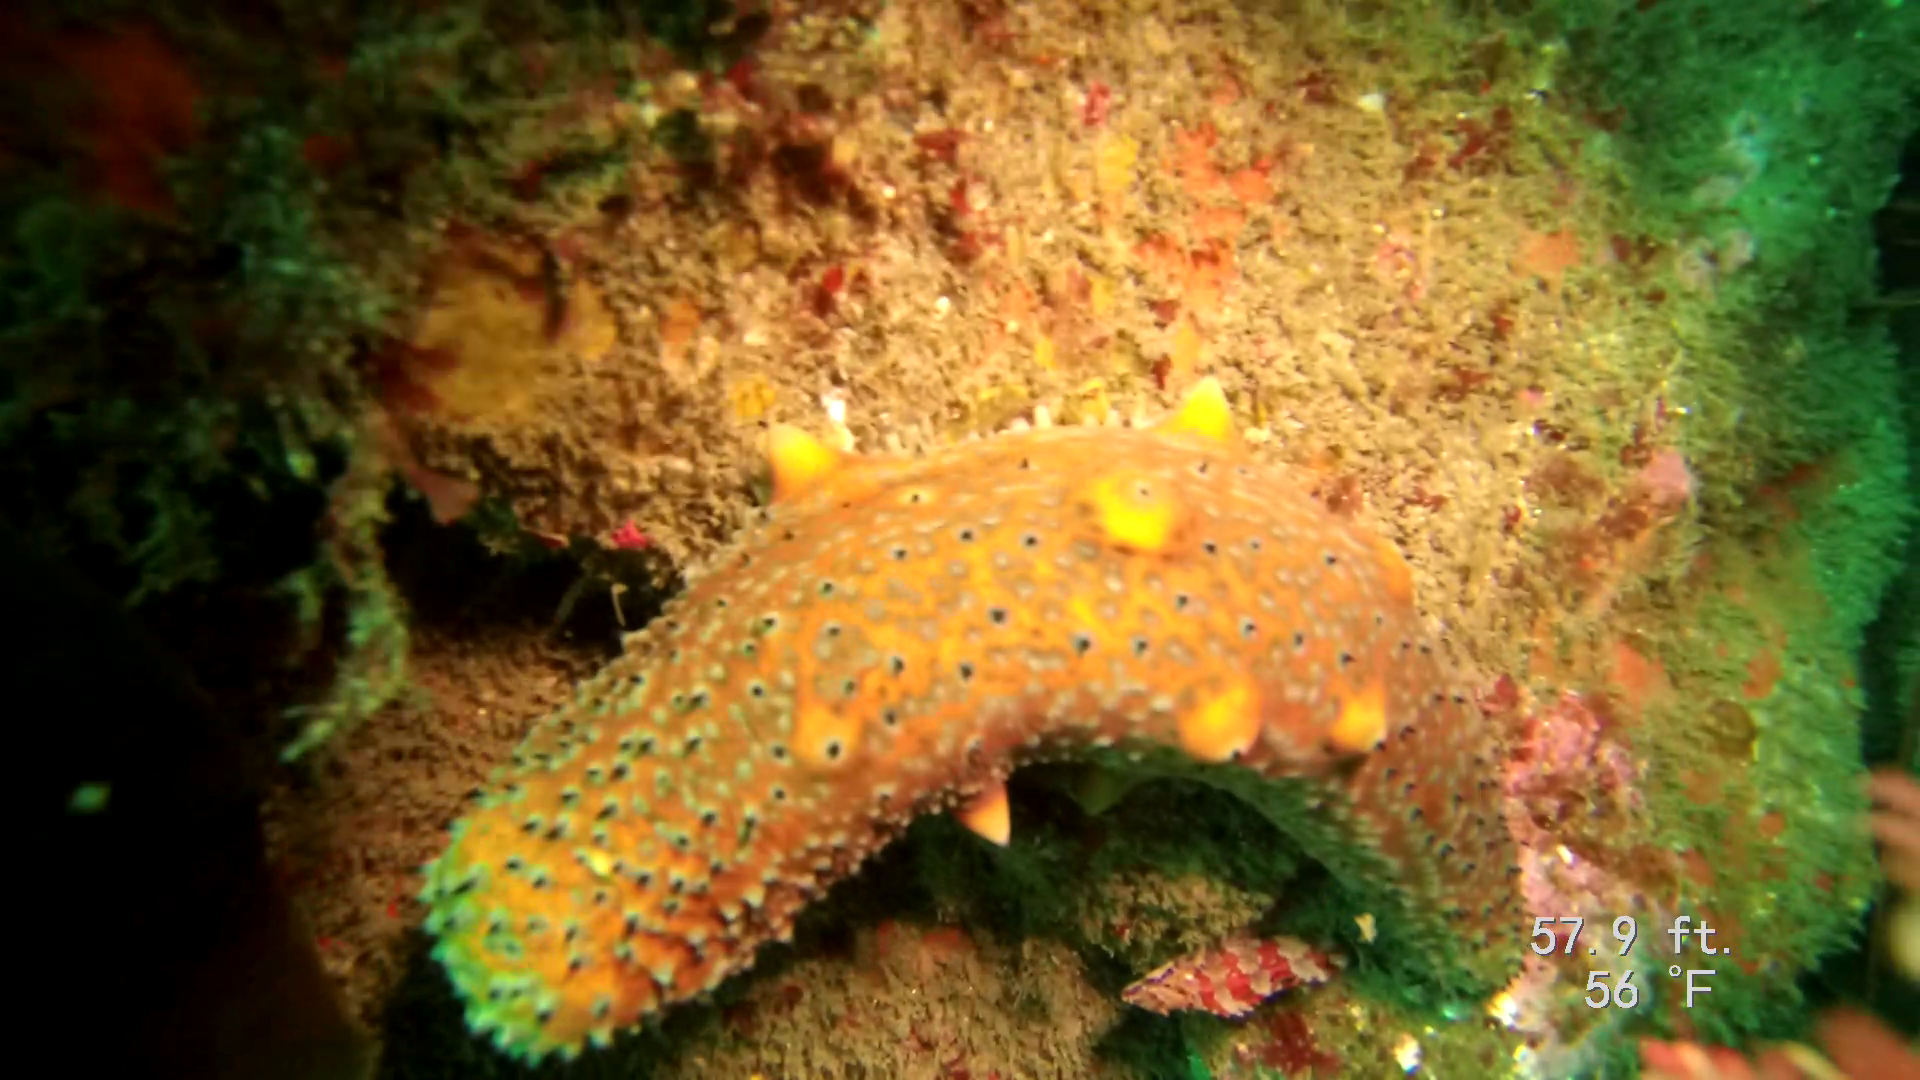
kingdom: Animalia
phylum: Echinodermata
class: Holothuroidea
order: Synallactida
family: Stichopodidae
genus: Apostichopus
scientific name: Apostichopus parvimensis
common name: Warty sea cucumber
